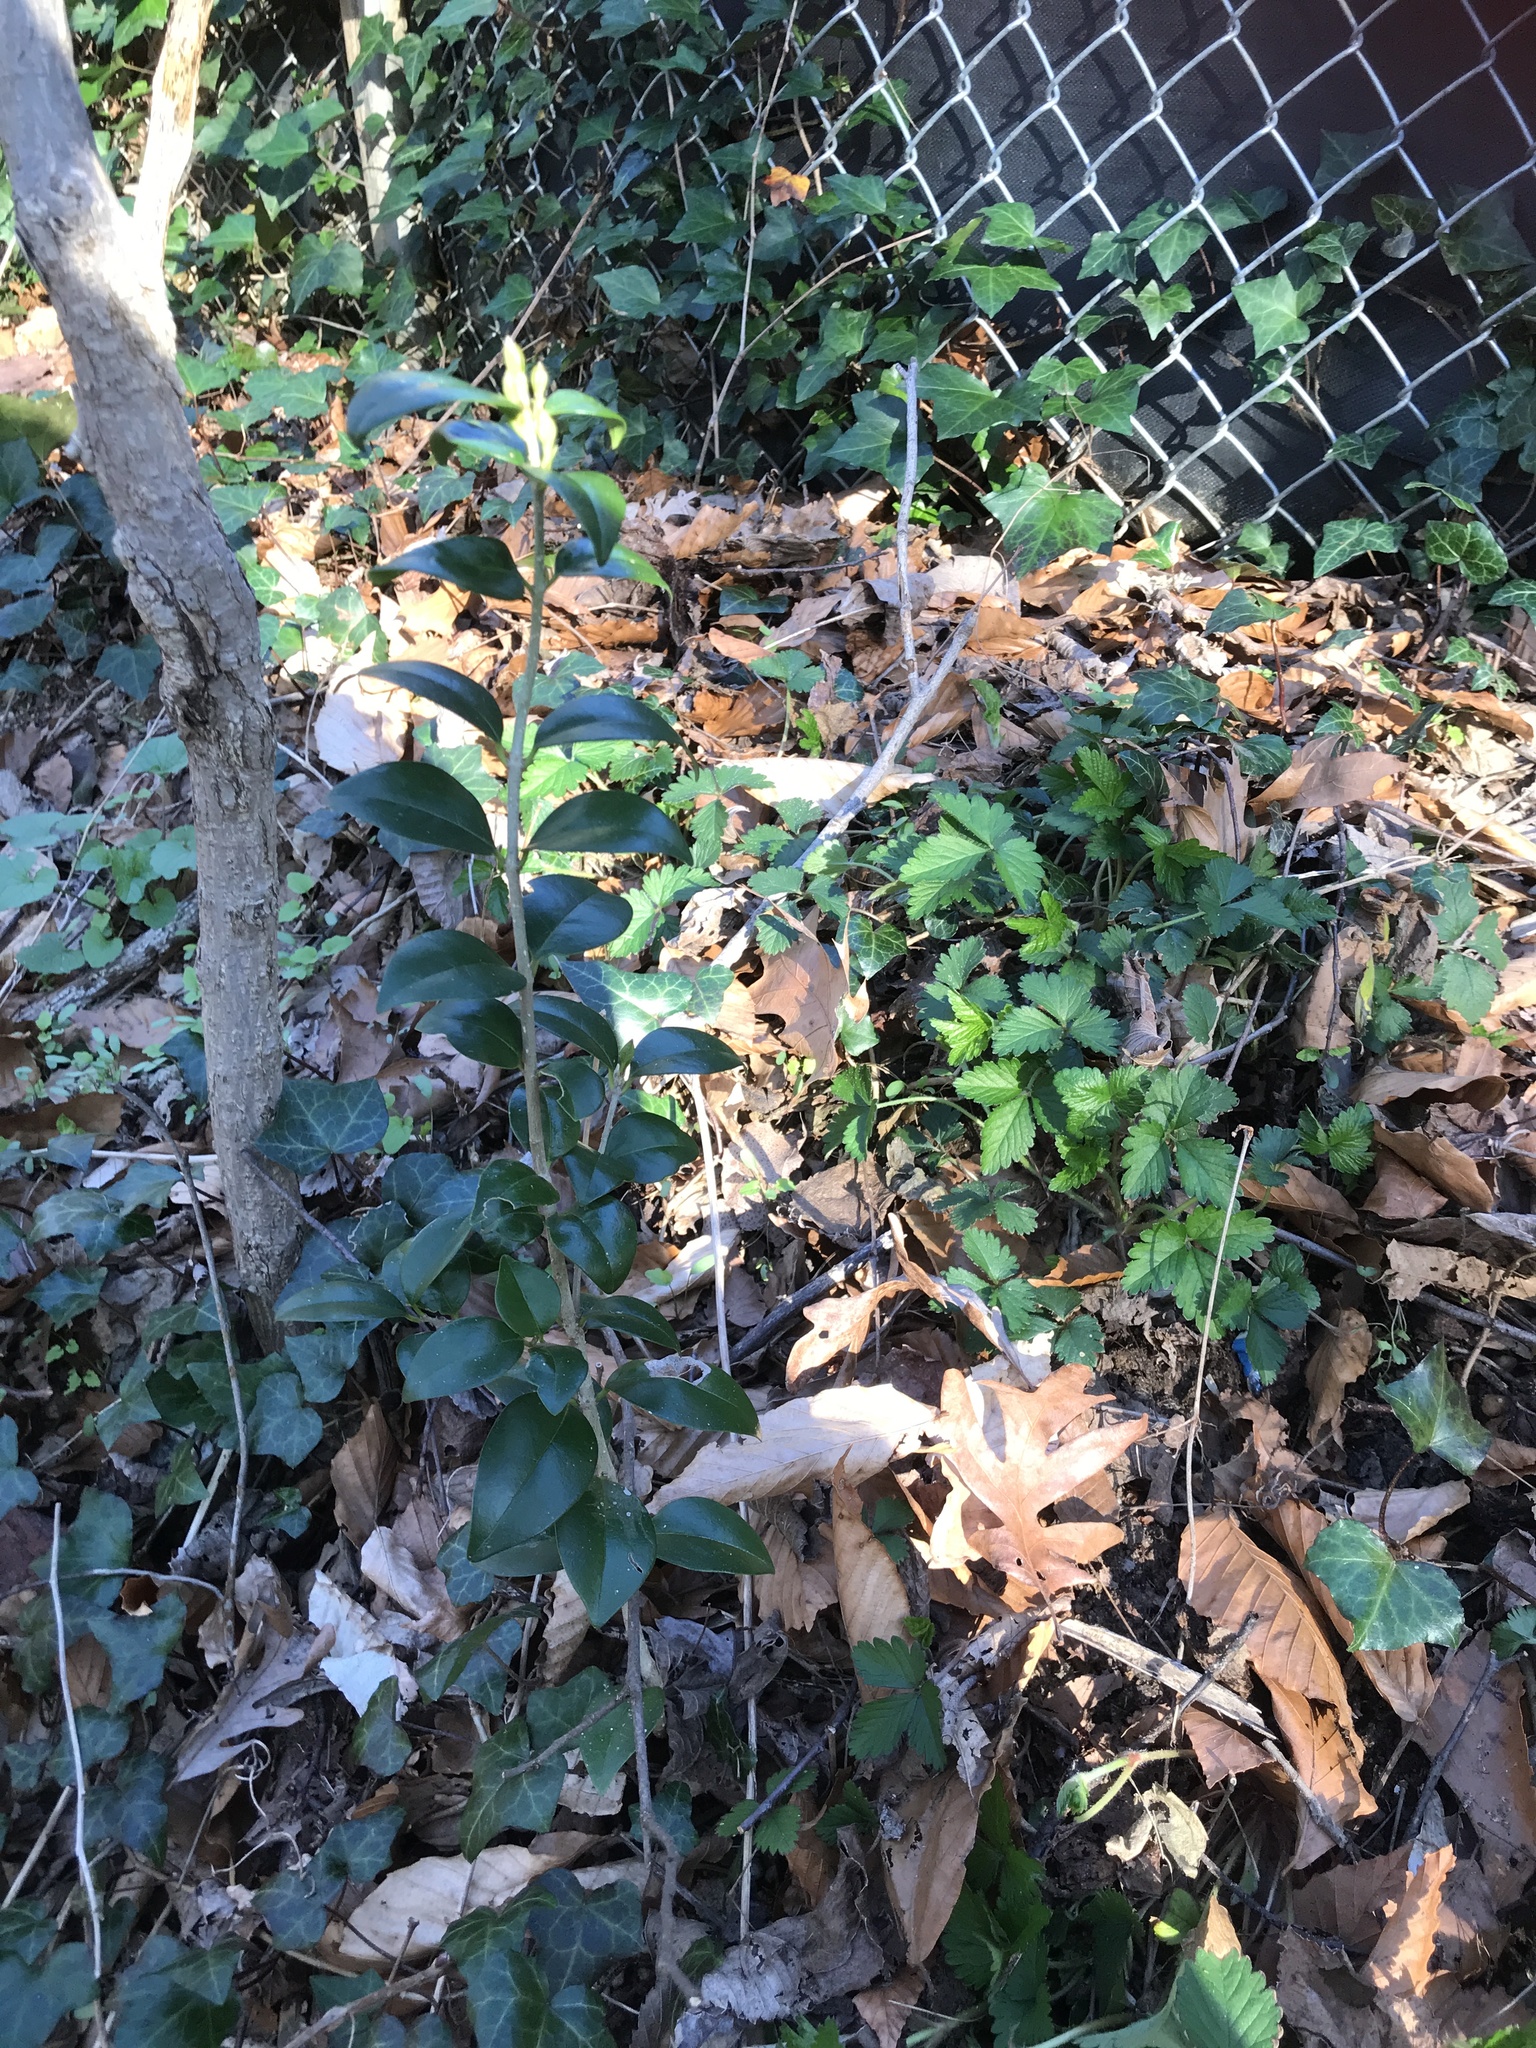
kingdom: Plantae
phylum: Tracheophyta
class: Magnoliopsida
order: Lamiales
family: Oleaceae
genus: Ligustrum
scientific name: Ligustrum japonicum
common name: Japanese privet
